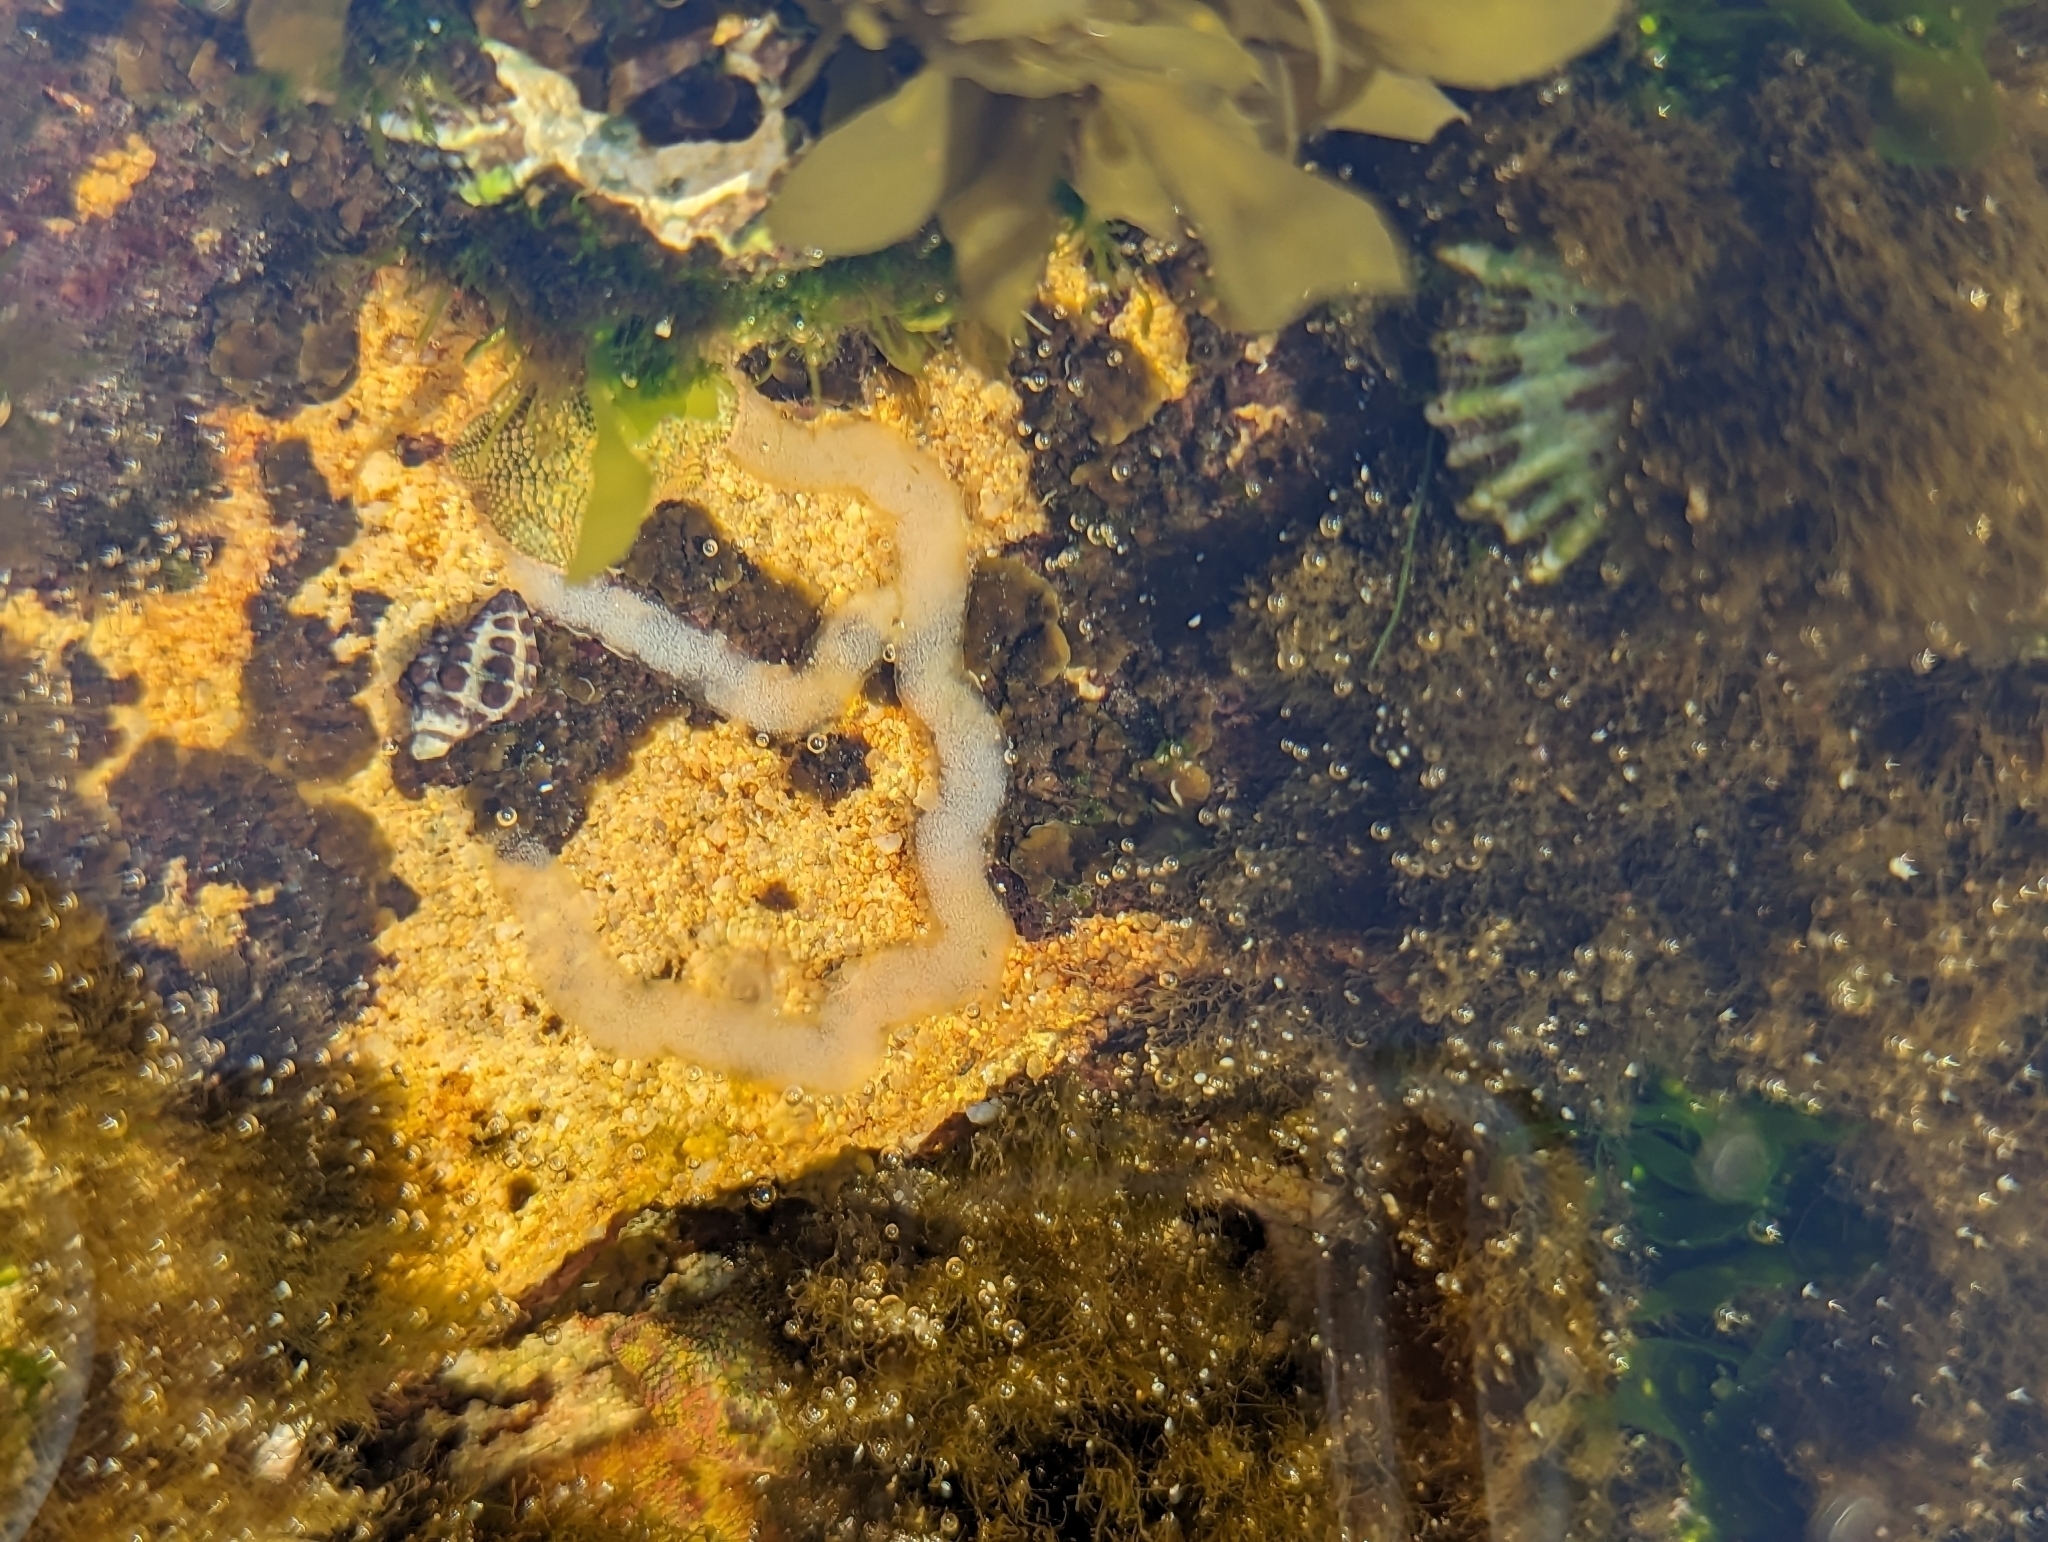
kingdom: Animalia
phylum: Mollusca
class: Gastropoda
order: Neogastropoda
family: Muricidae
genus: Tenguella
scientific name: Tenguella marginalba
